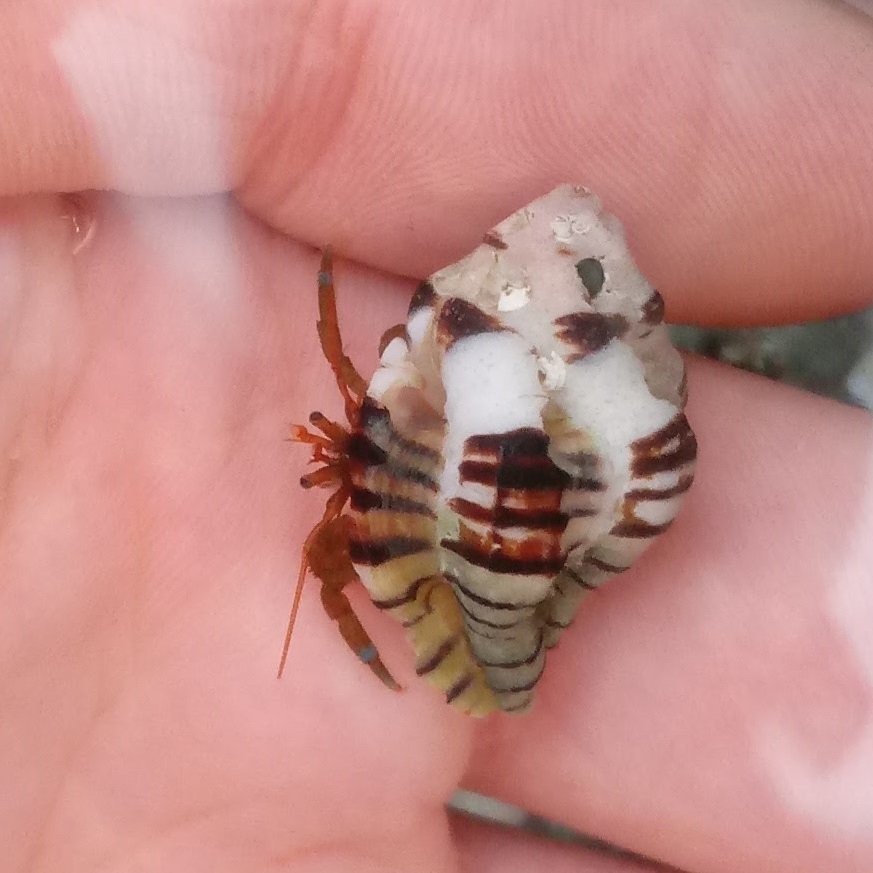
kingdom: Animalia
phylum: Arthropoda
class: Malacostraca
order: Decapoda
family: Paguridae
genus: Pagurus
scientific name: Pagurus samuelis
